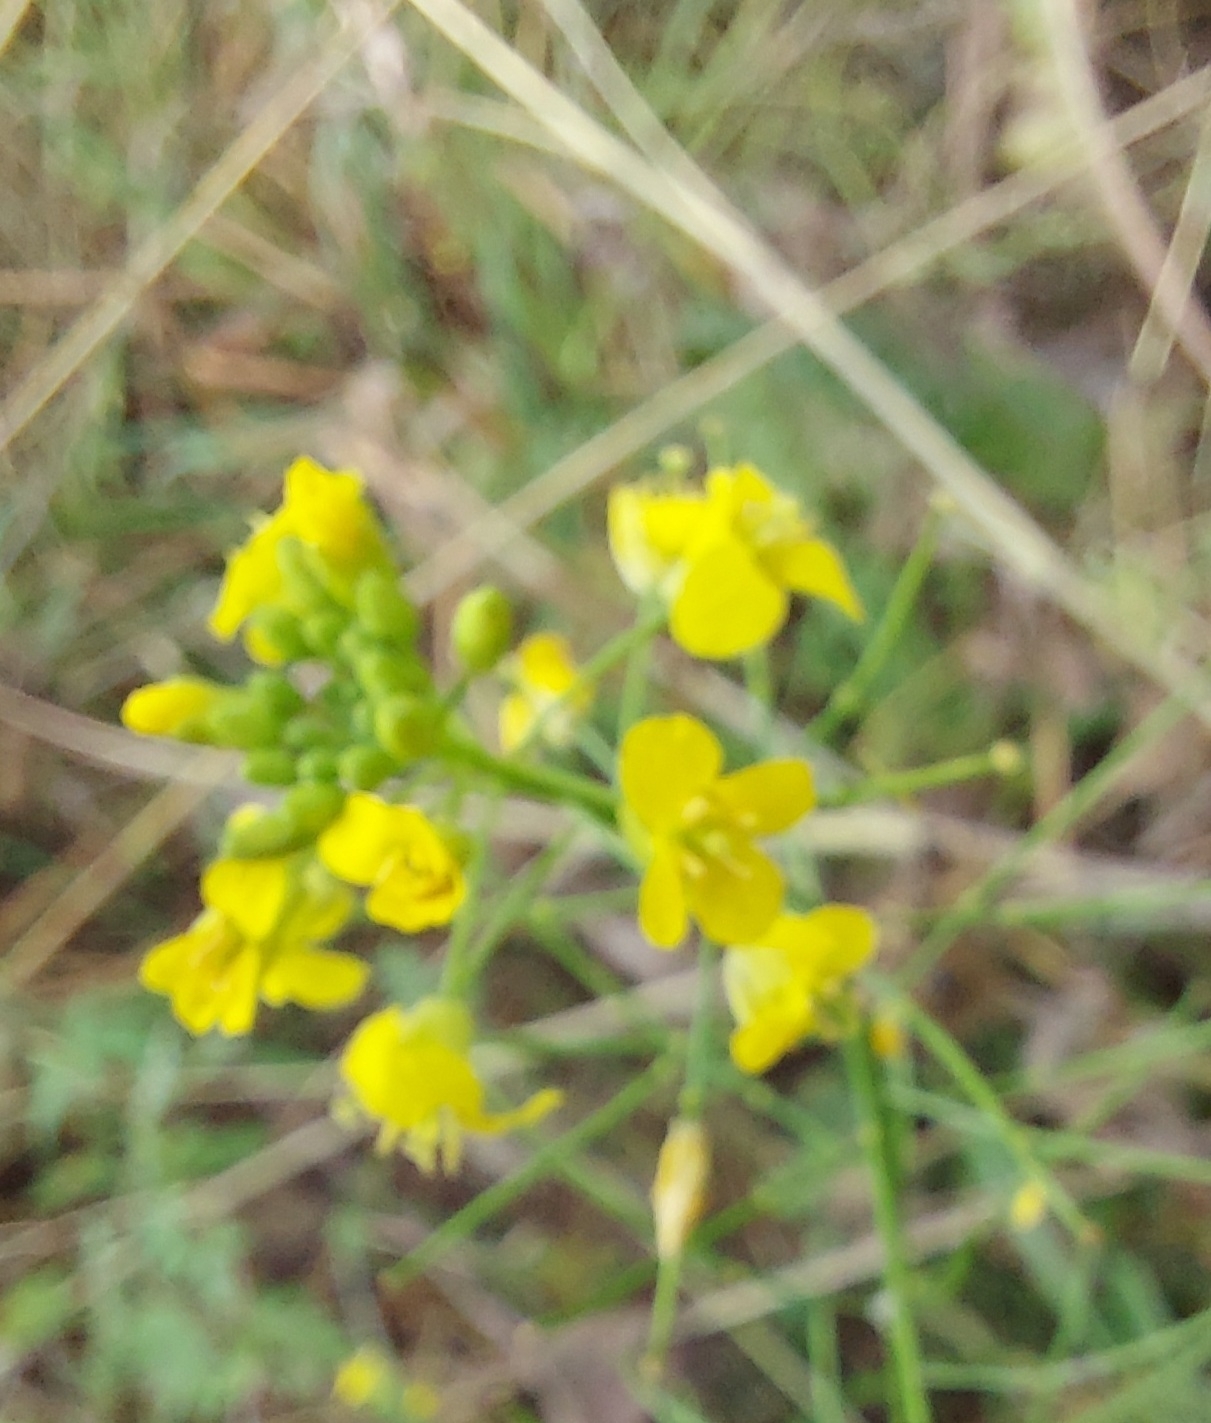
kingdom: Plantae
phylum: Tracheophyta
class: Magnoliopsida
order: Brassicales
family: Brassicaceae
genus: Sisymbrium
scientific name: Sisymbrium loeselii
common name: False london-rocket
